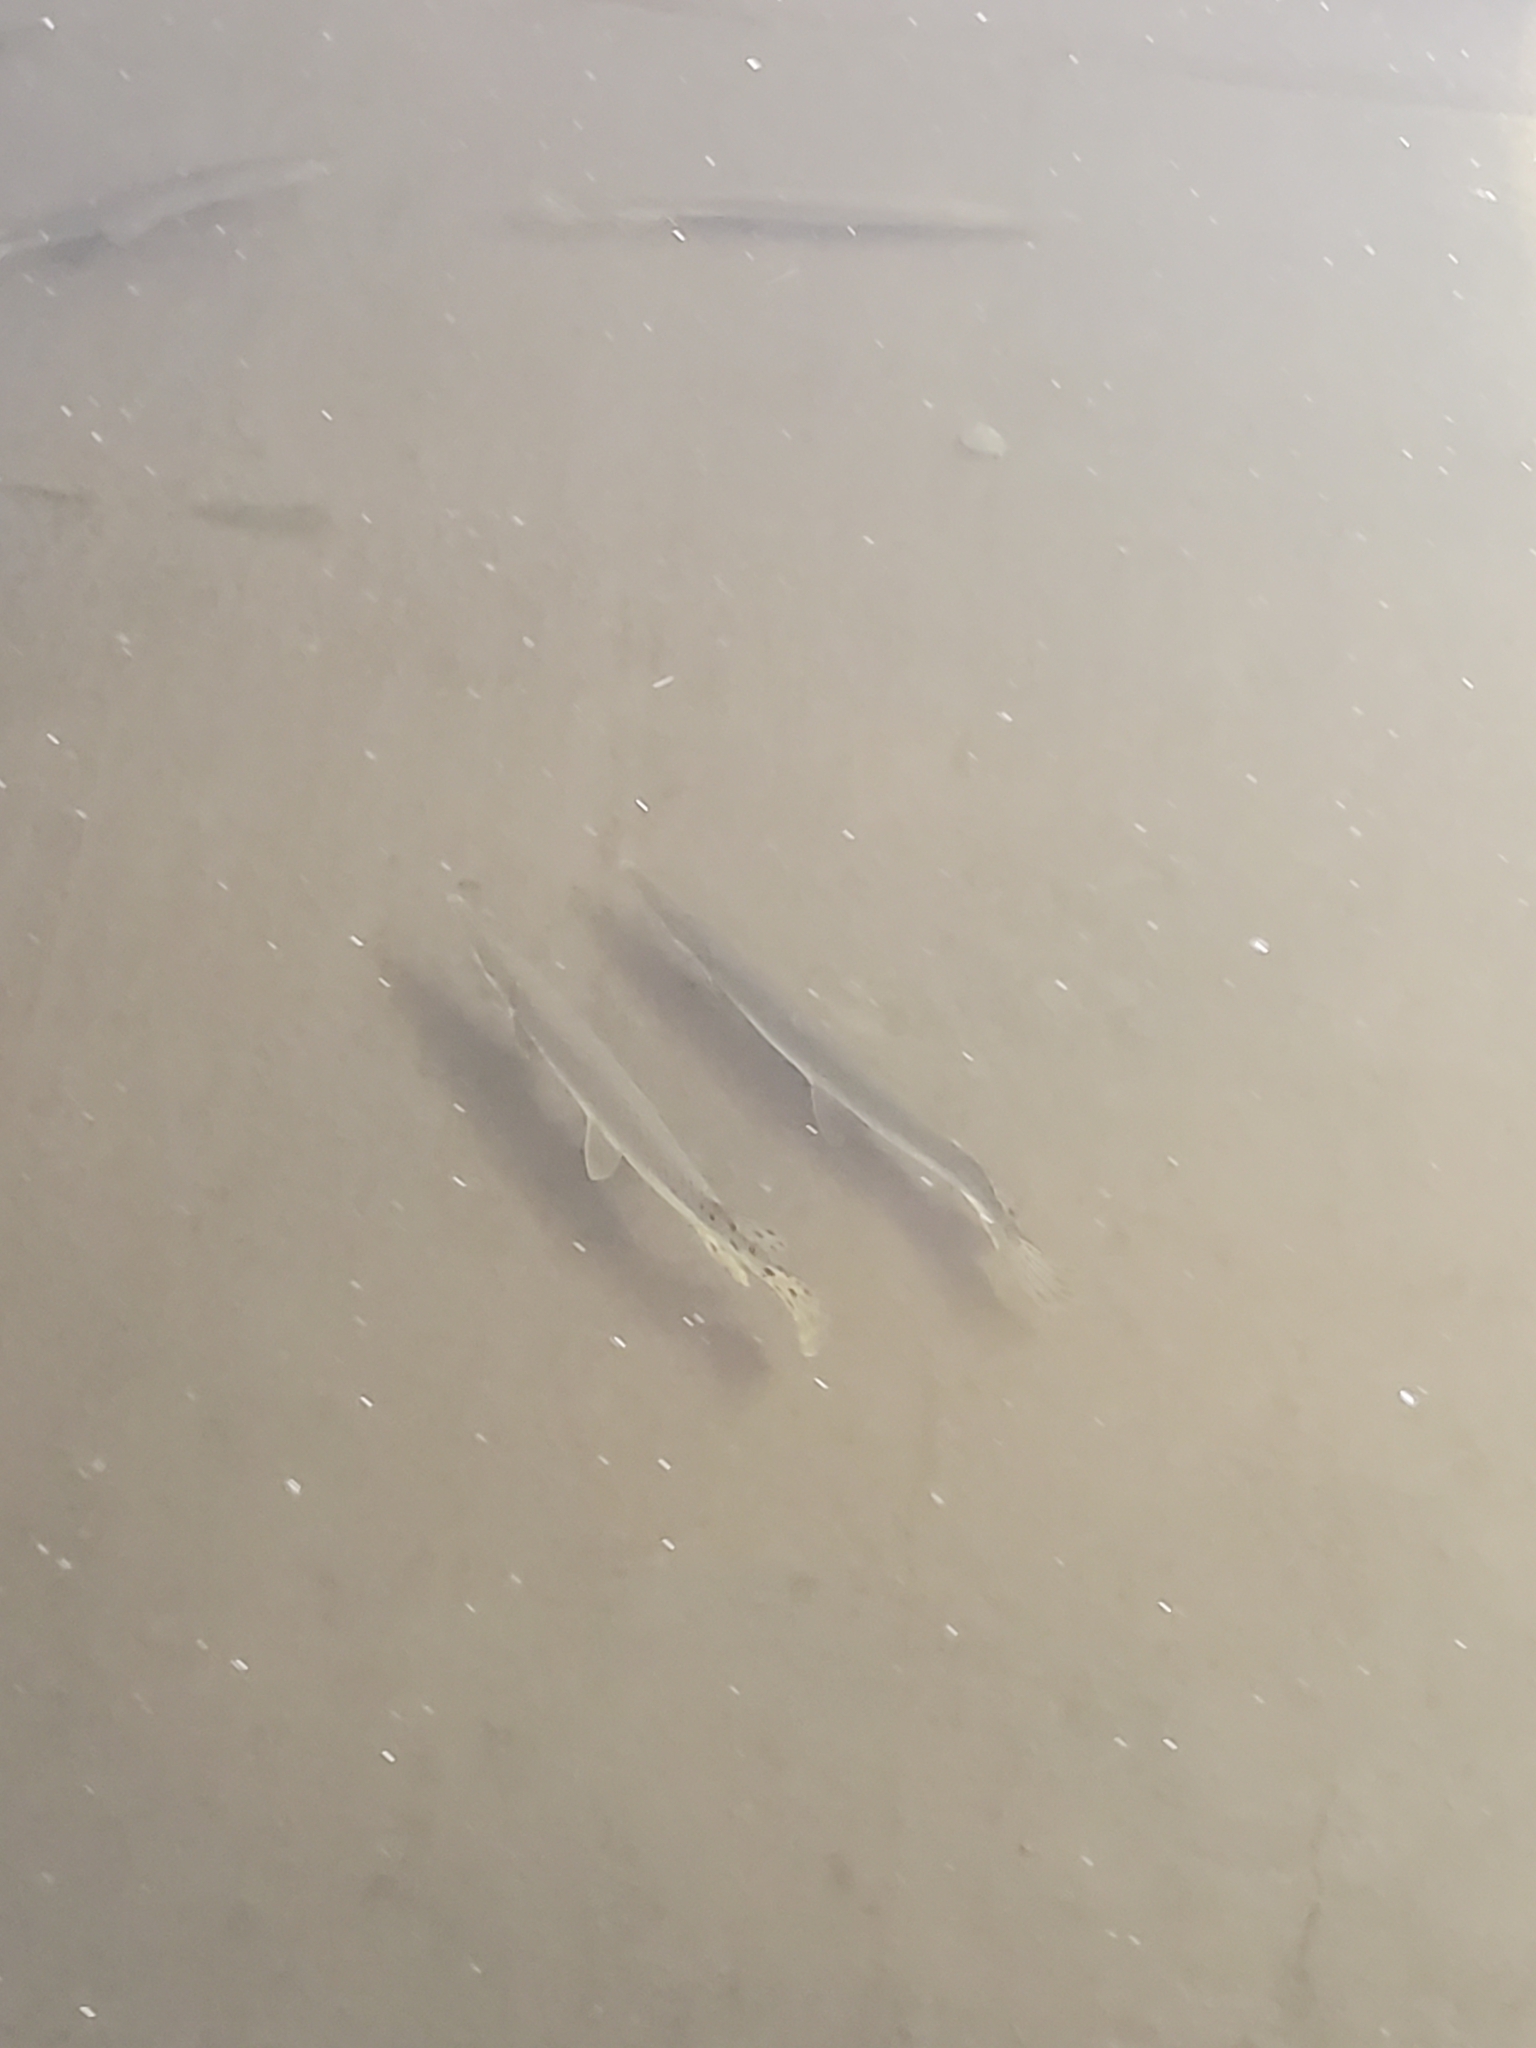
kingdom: Animalia
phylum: Chordata
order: Lepisosteiformes
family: Lepisosteidae
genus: Lepisosteus
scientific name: Lepisosteus platostomus
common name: Shortnose gar
